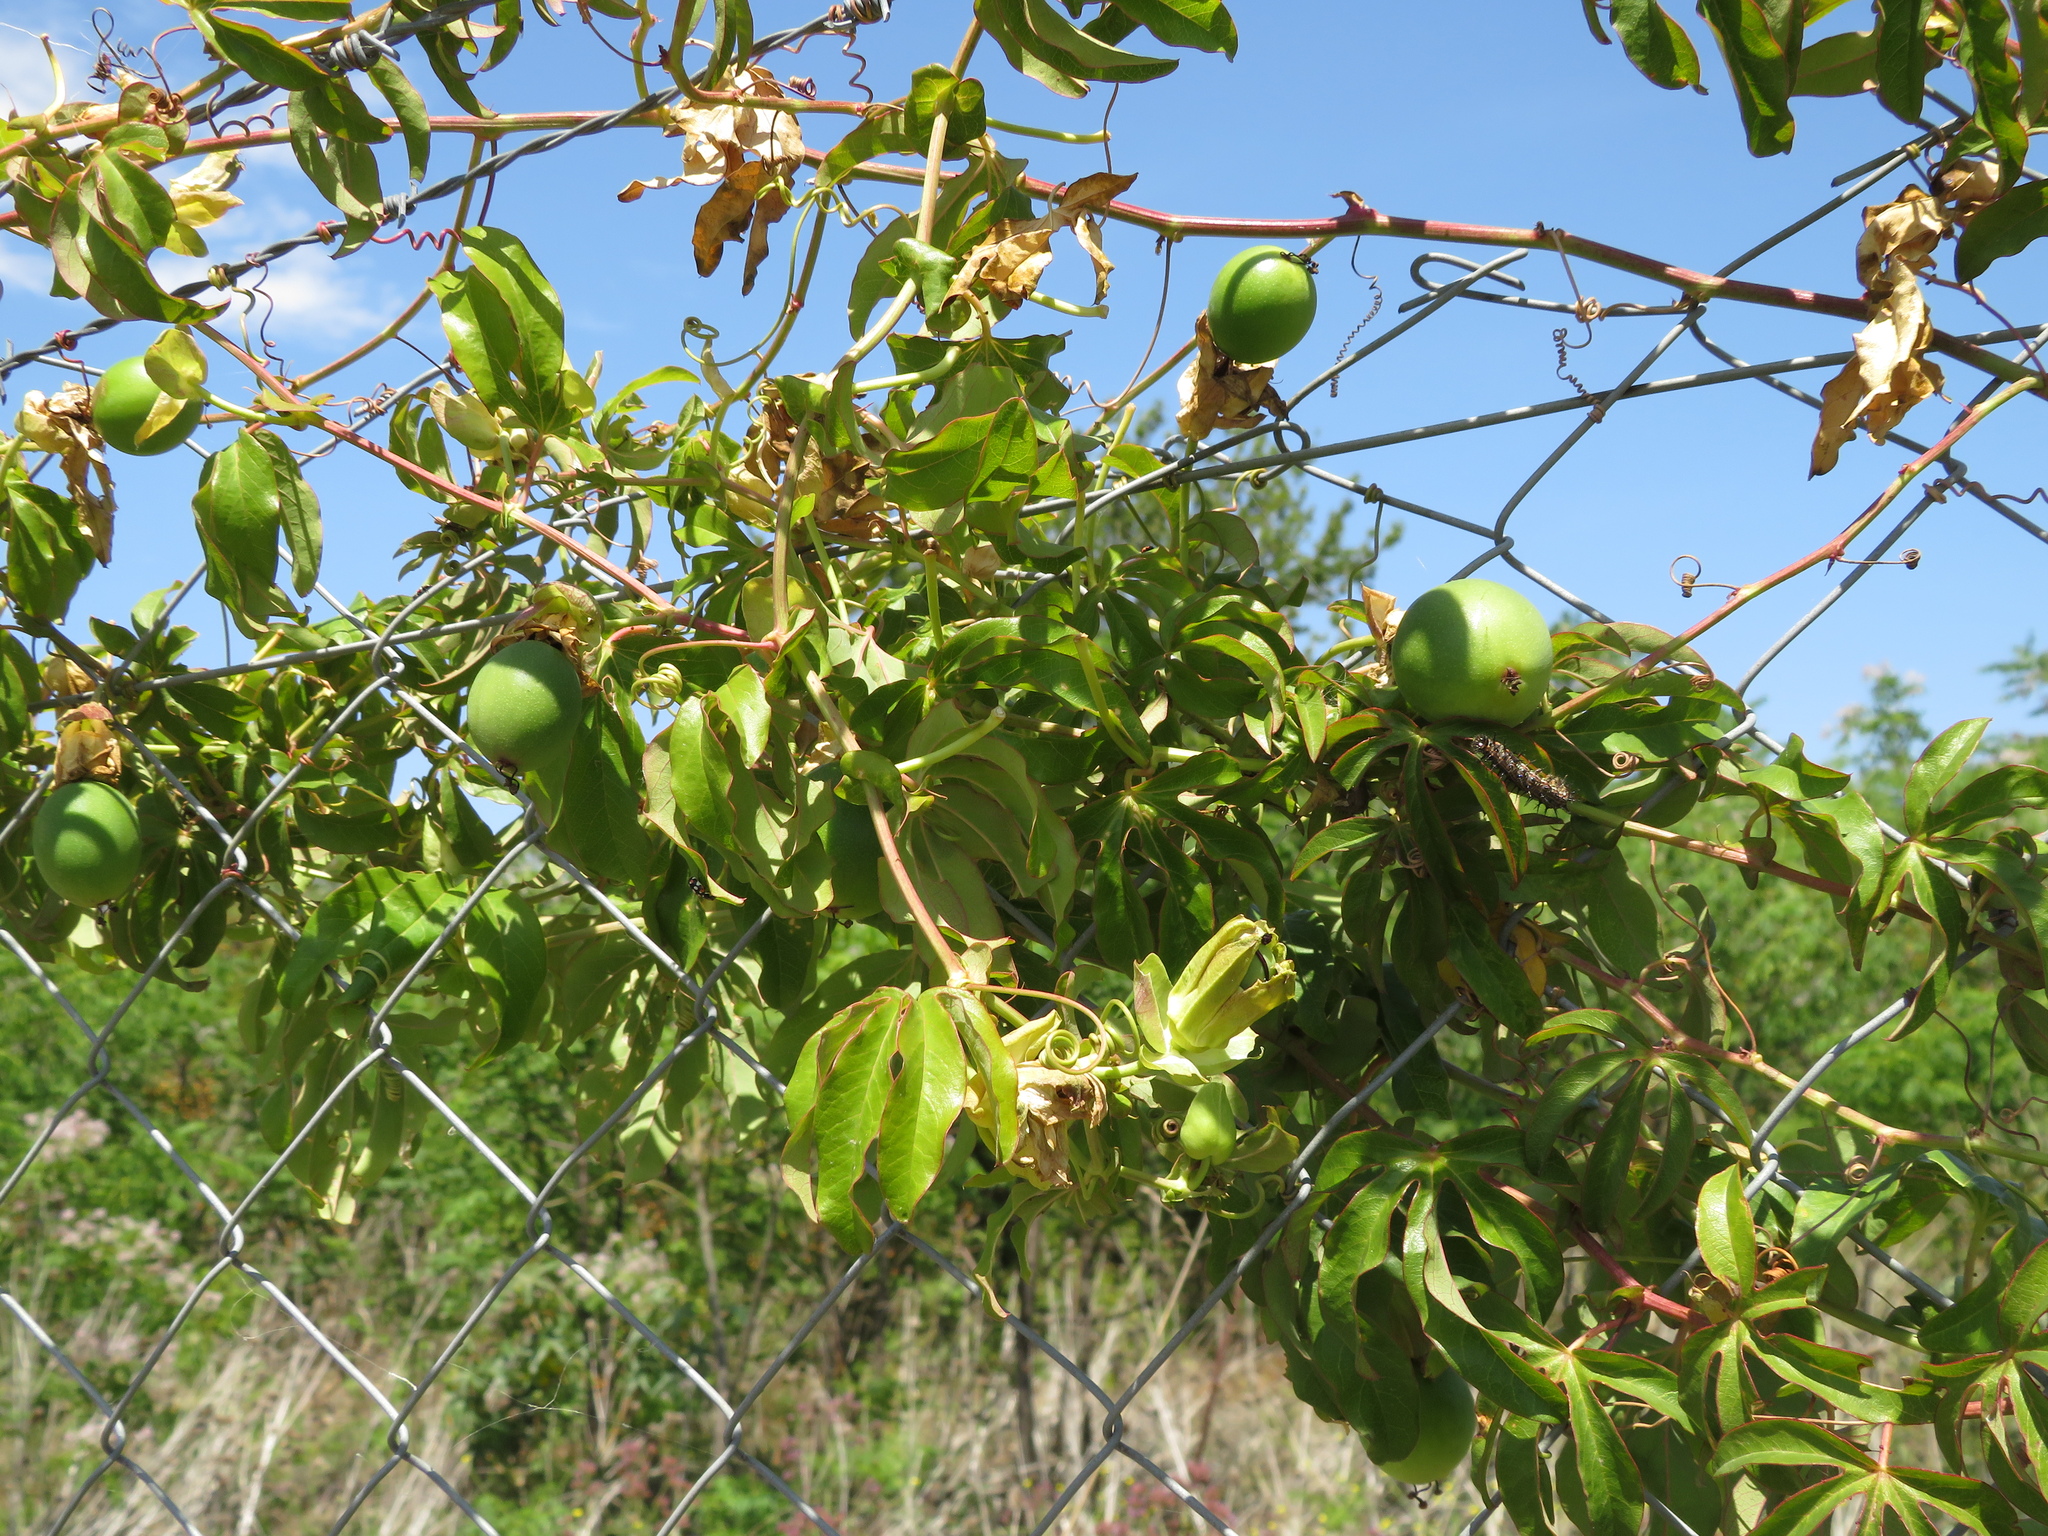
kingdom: Plantae
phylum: Tracheophyta
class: Magnoliopsida
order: Malpighiales
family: Passifloraceae
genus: Passiflora
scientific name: Passiflora caerulea
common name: Blue passionflower
